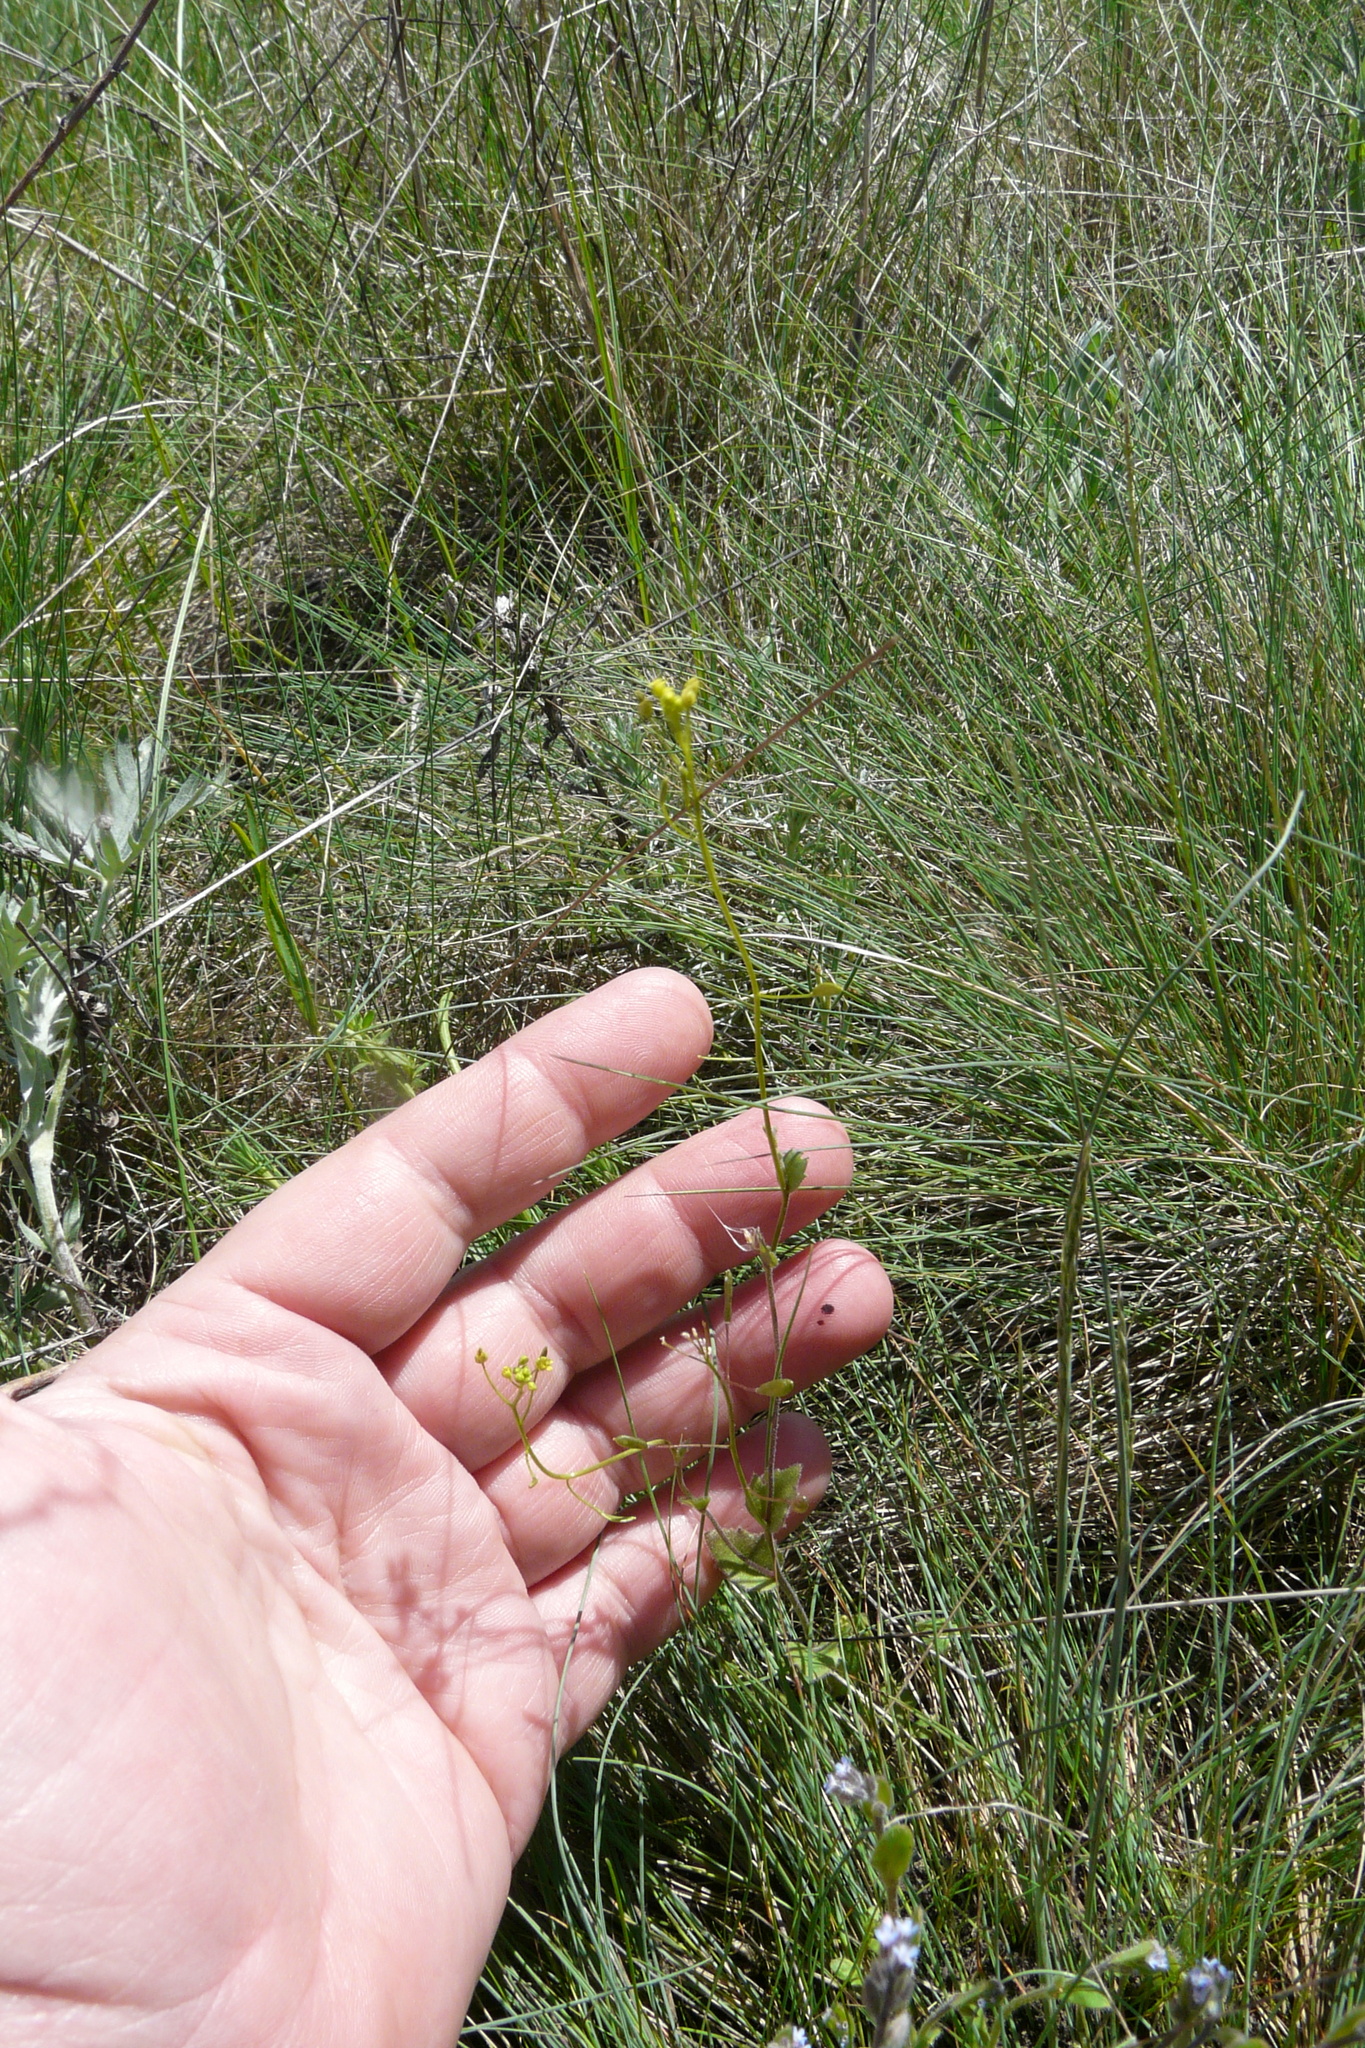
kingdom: Plantae
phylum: Tracheophyta
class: Magnoliopsida
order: Brassicales
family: Brassicaceae
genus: Draba
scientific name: Draba nemorosa
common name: Wood whitlow-grass
